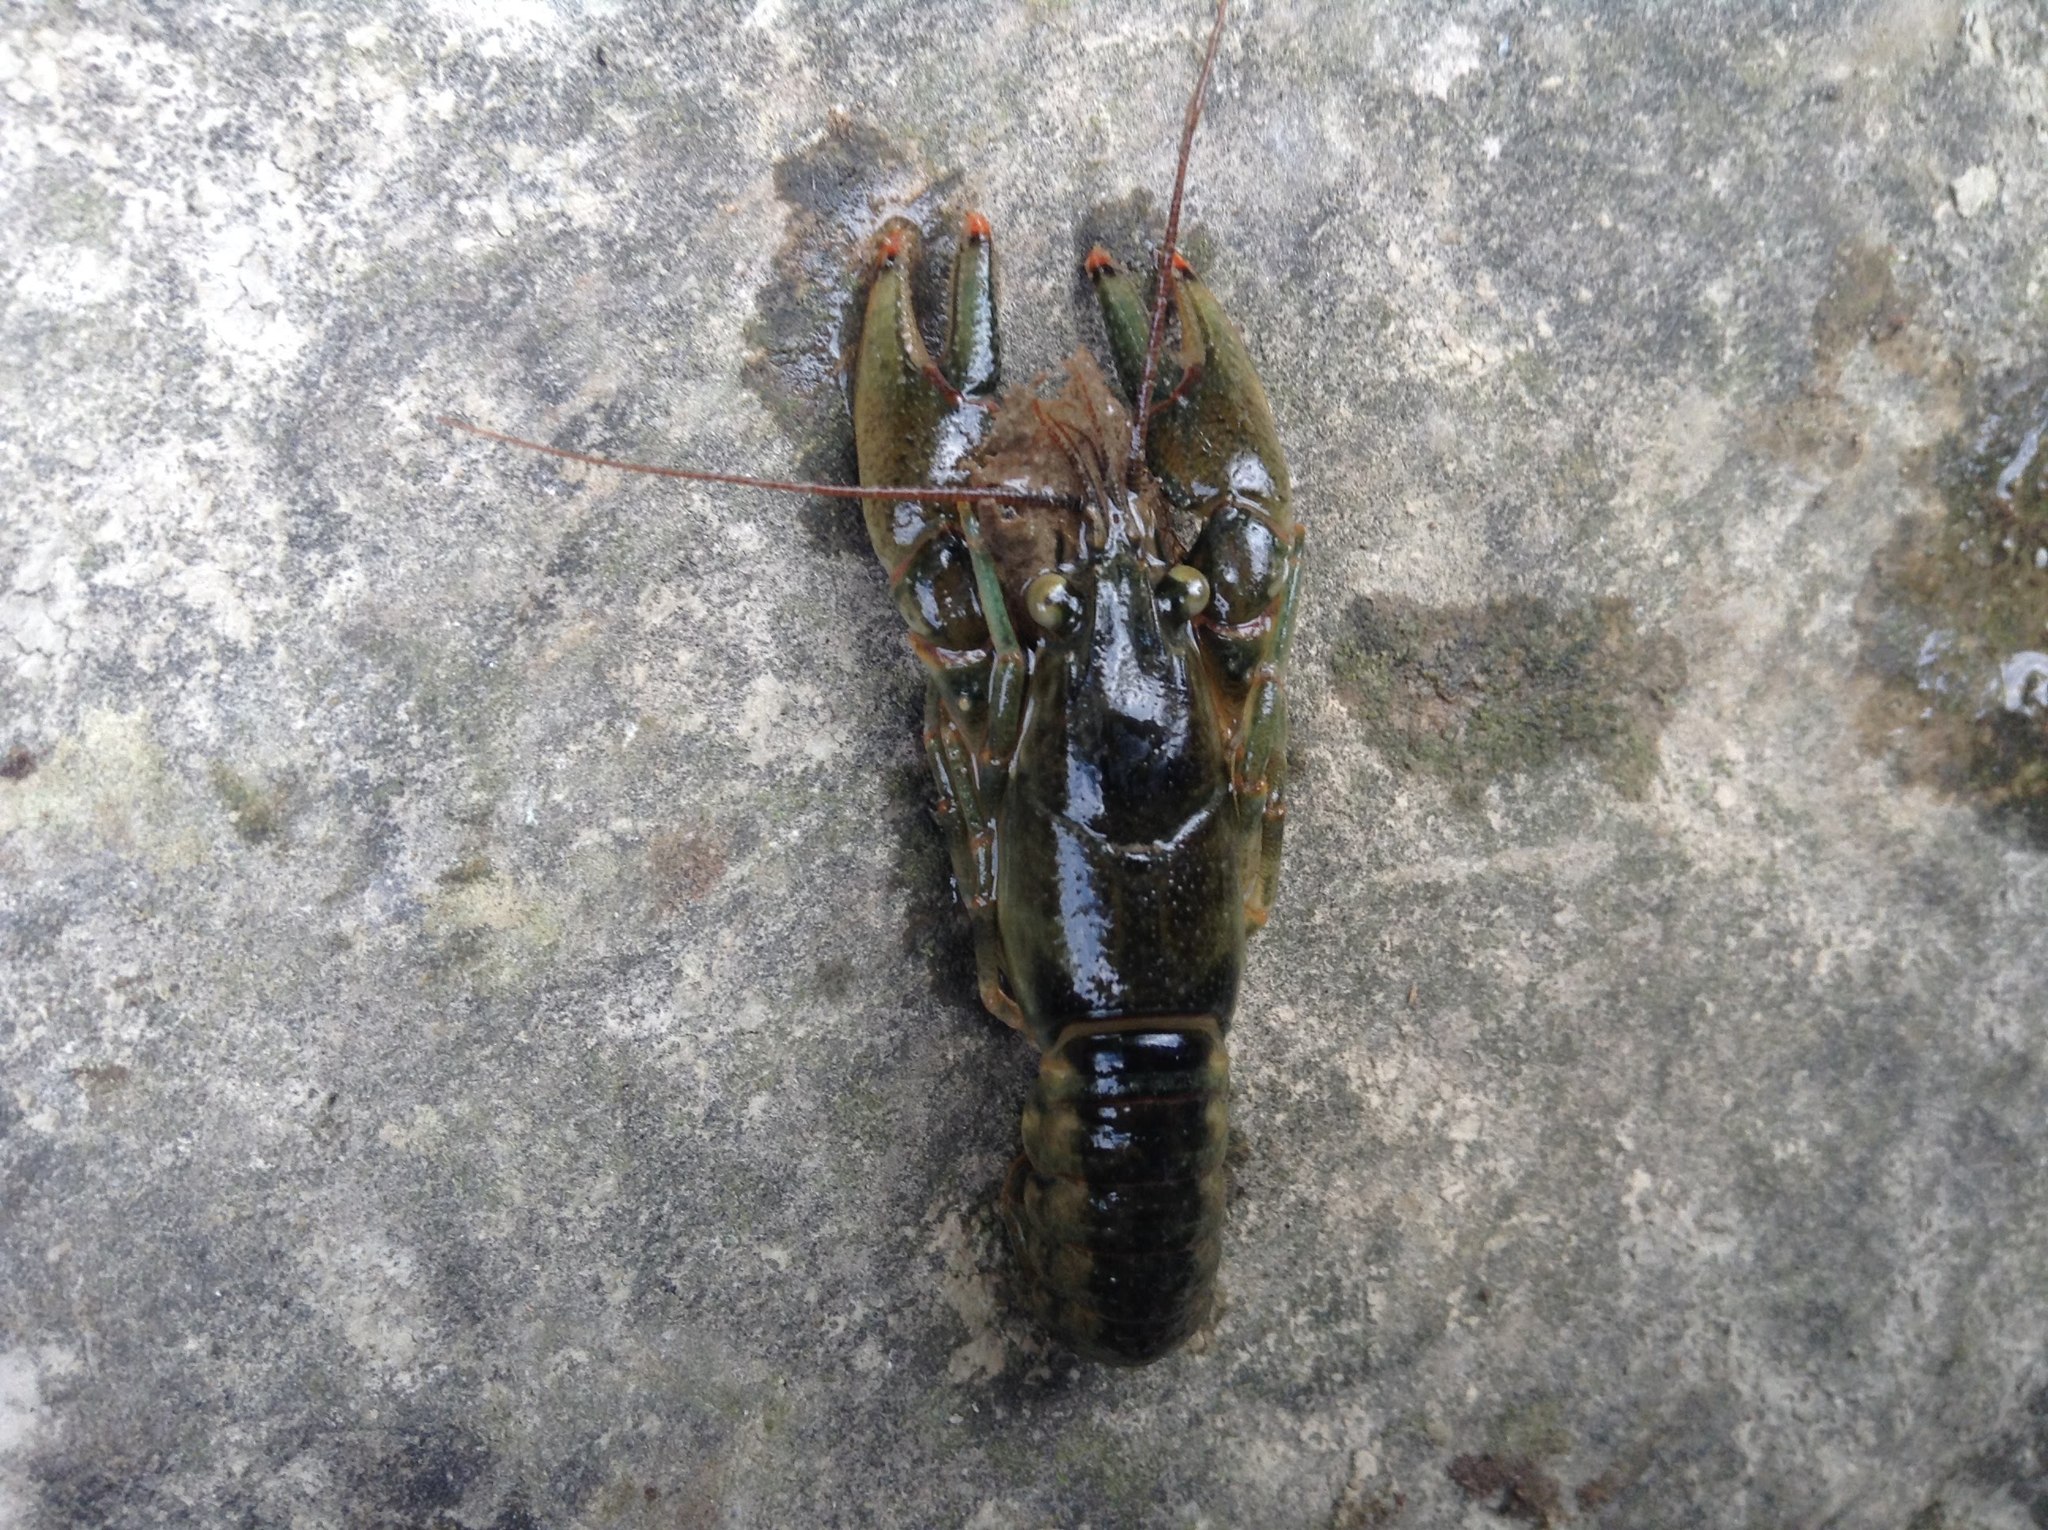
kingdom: Animalia
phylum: Arthropoda
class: Malacostraca
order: Decapoda
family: Cambaridae
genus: Faxonius
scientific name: Faxonius propinquus
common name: Northern clearwater crayfish
